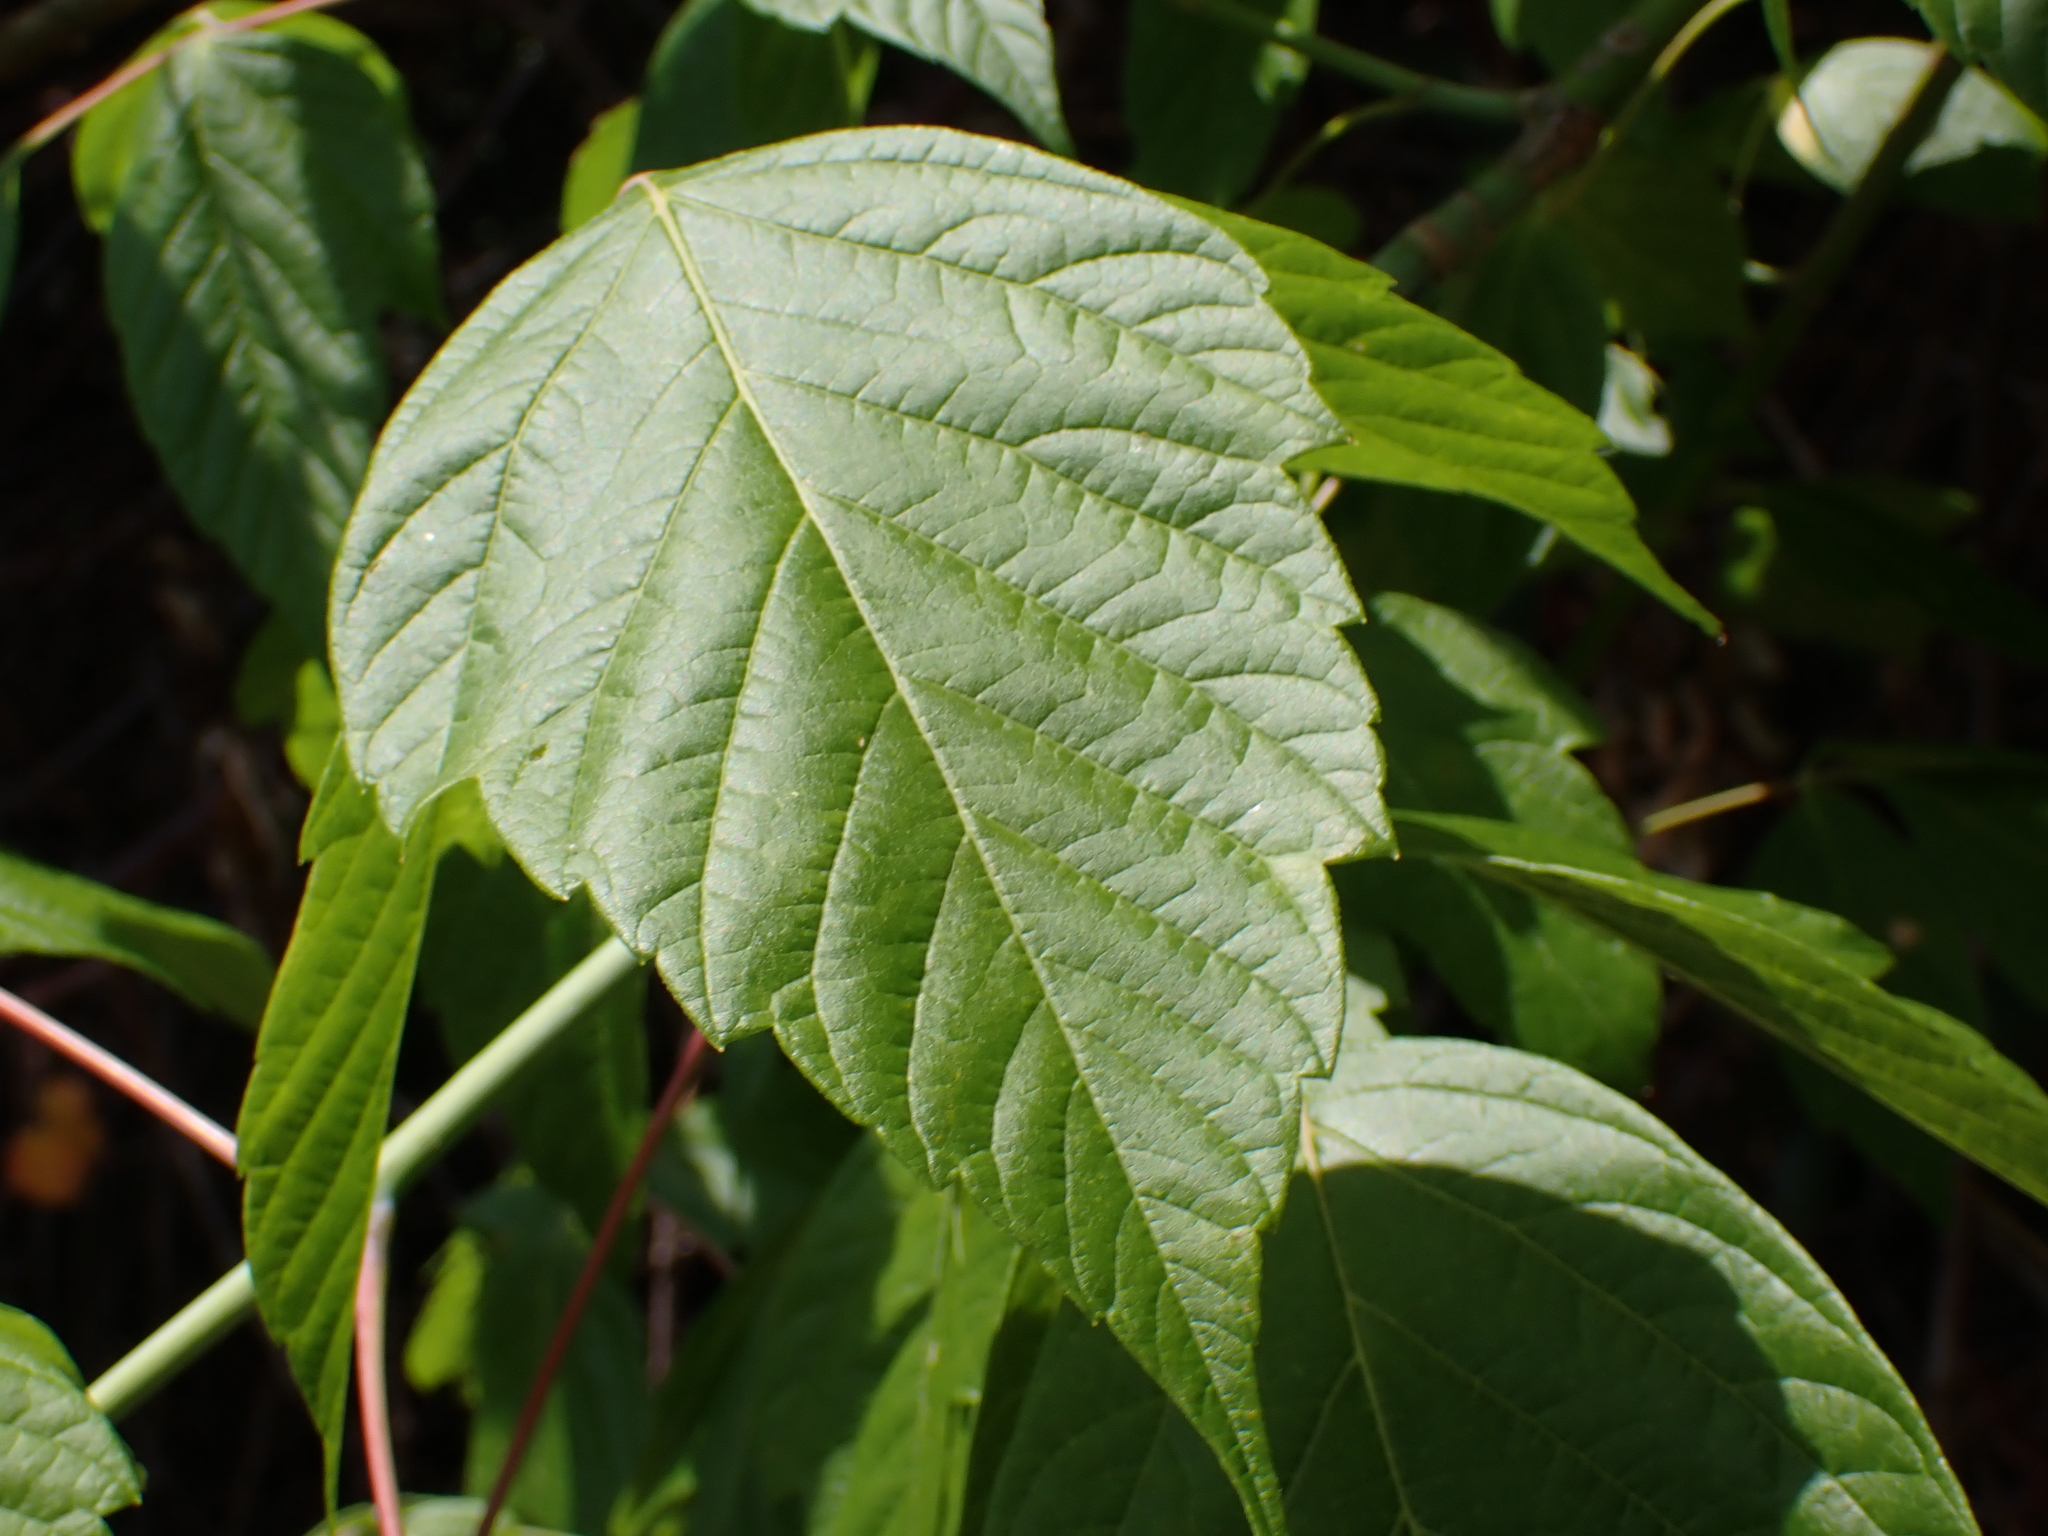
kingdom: Plantae
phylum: Tracheophyta
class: Magnoliopsida
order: Sapindales
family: Sapindaceae
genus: Acer
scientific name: Acer negundo
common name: Ashleaf maple
